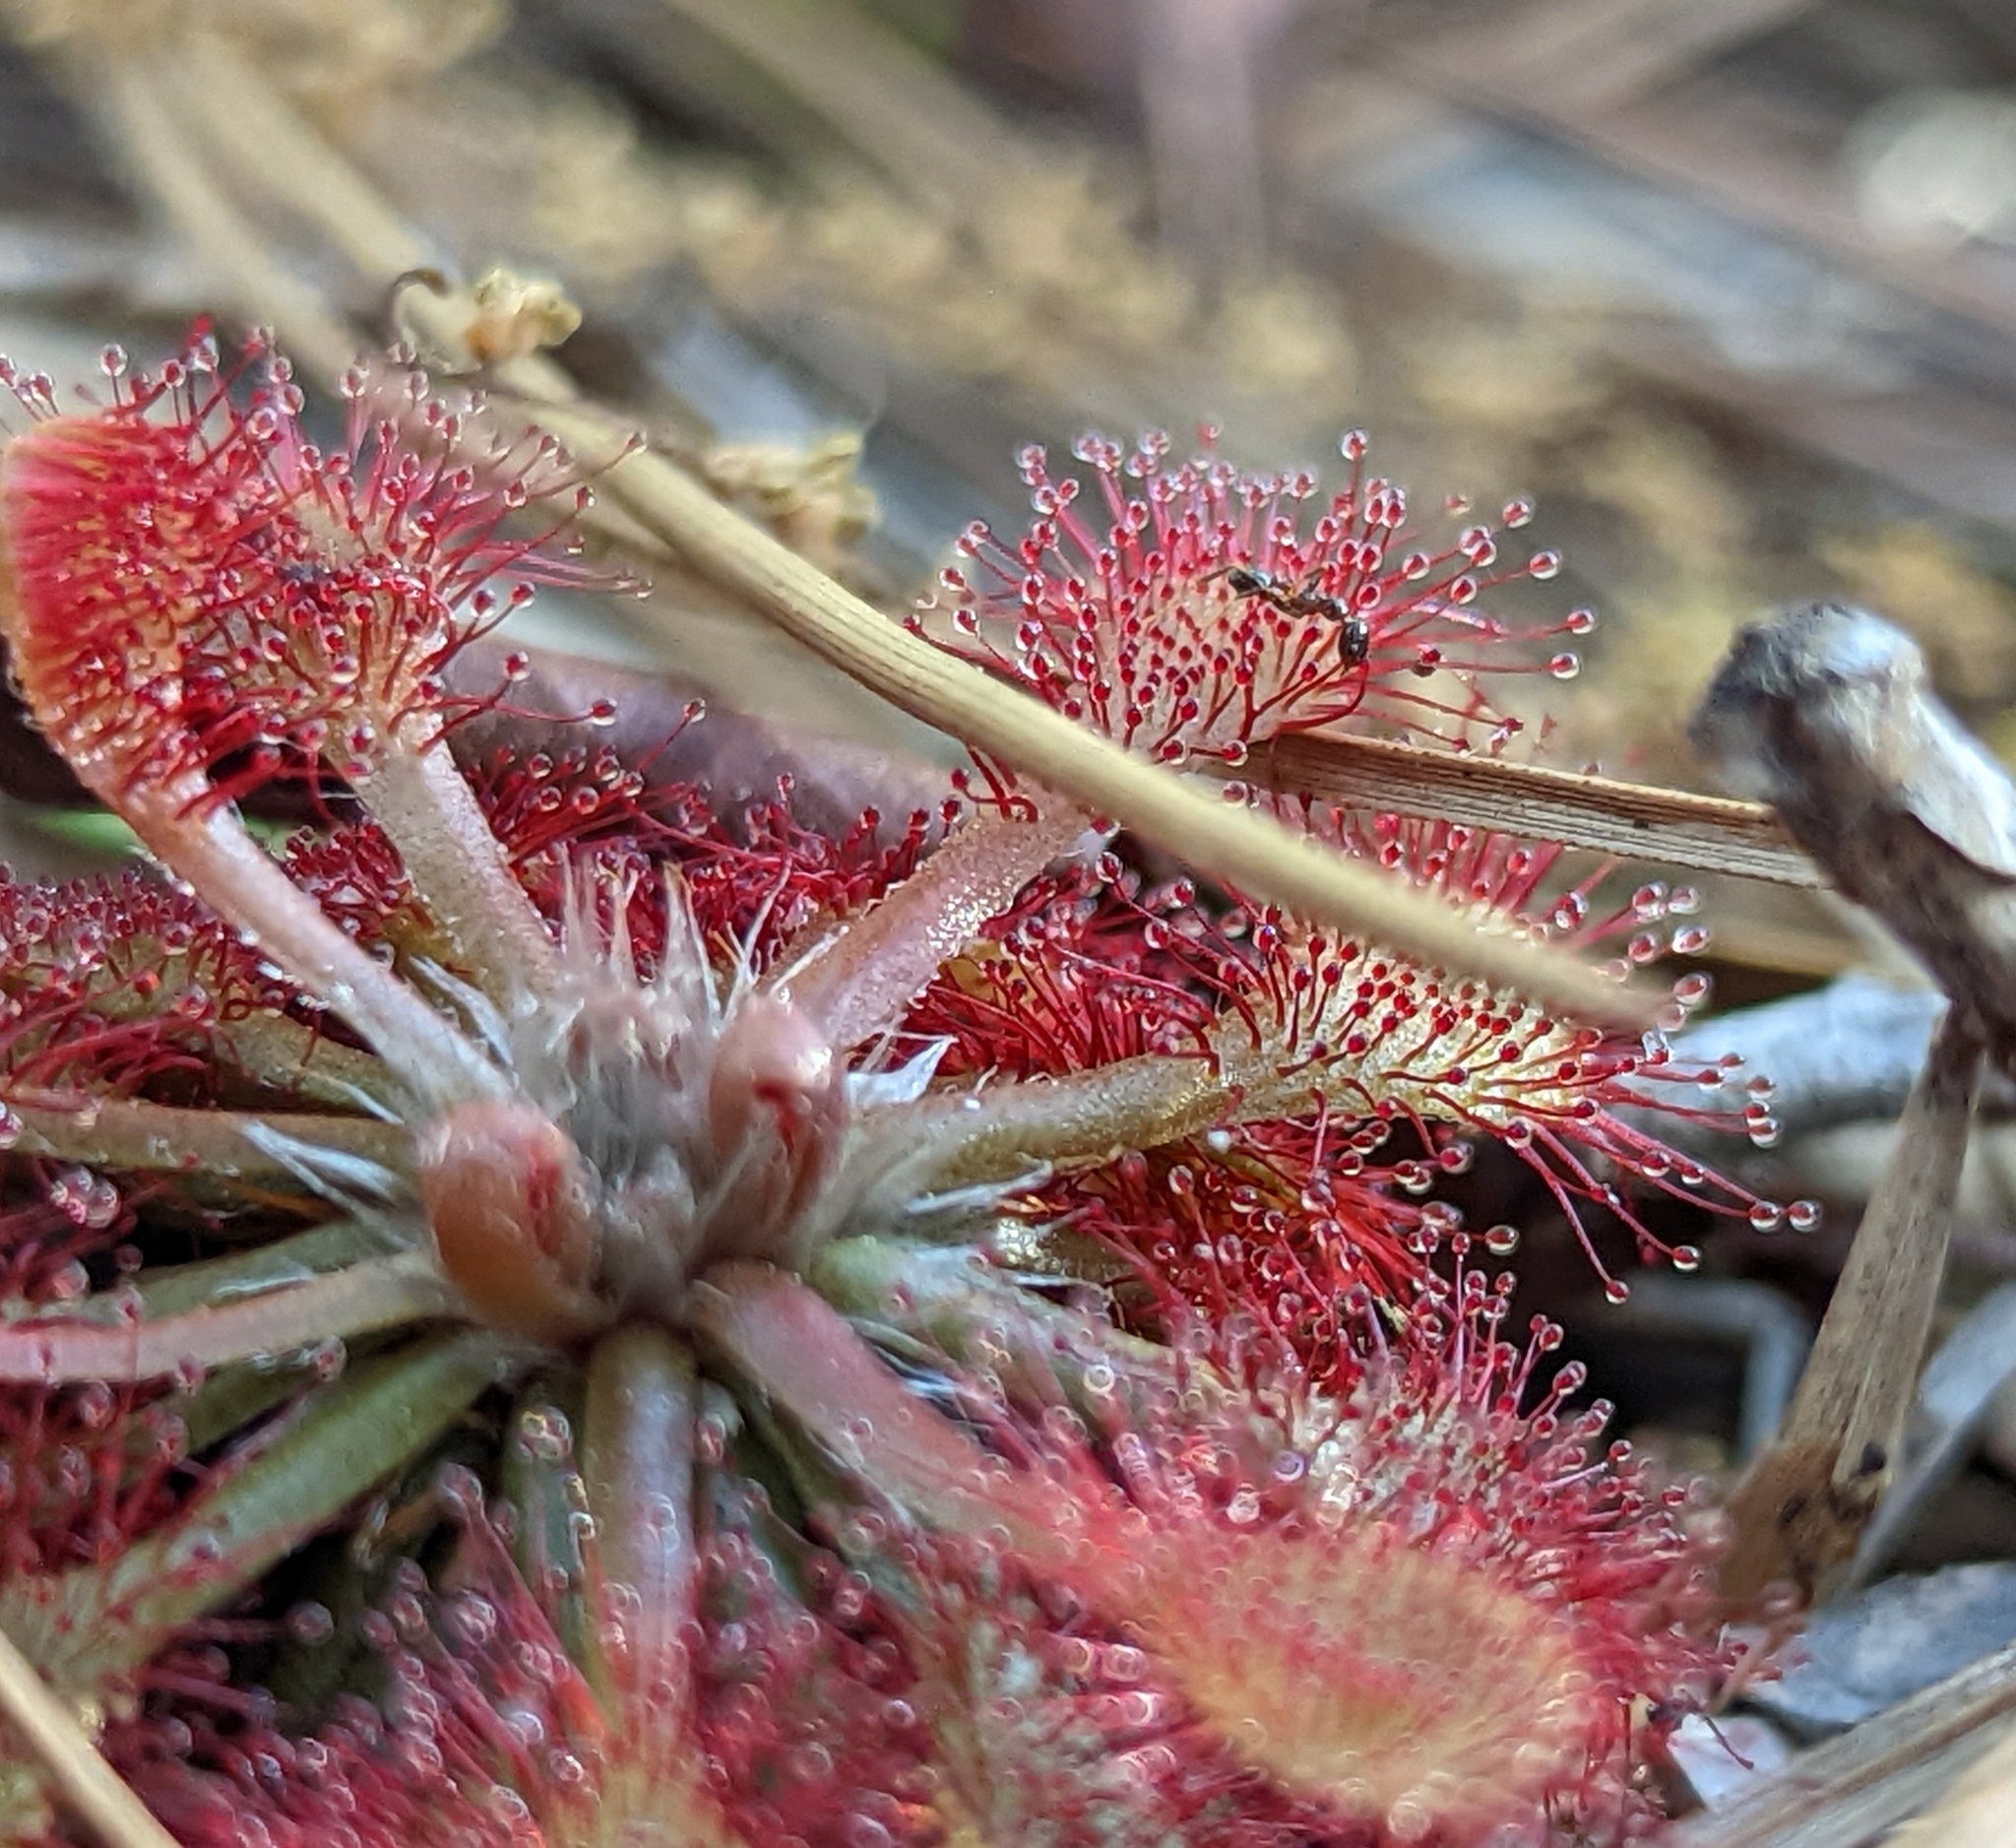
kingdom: Plantae
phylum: Tracheophyta
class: Magnoliopsida
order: Caryophyllales
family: Droseraceae
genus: Drosera
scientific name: Drosera capillaris
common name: Pink sundew
